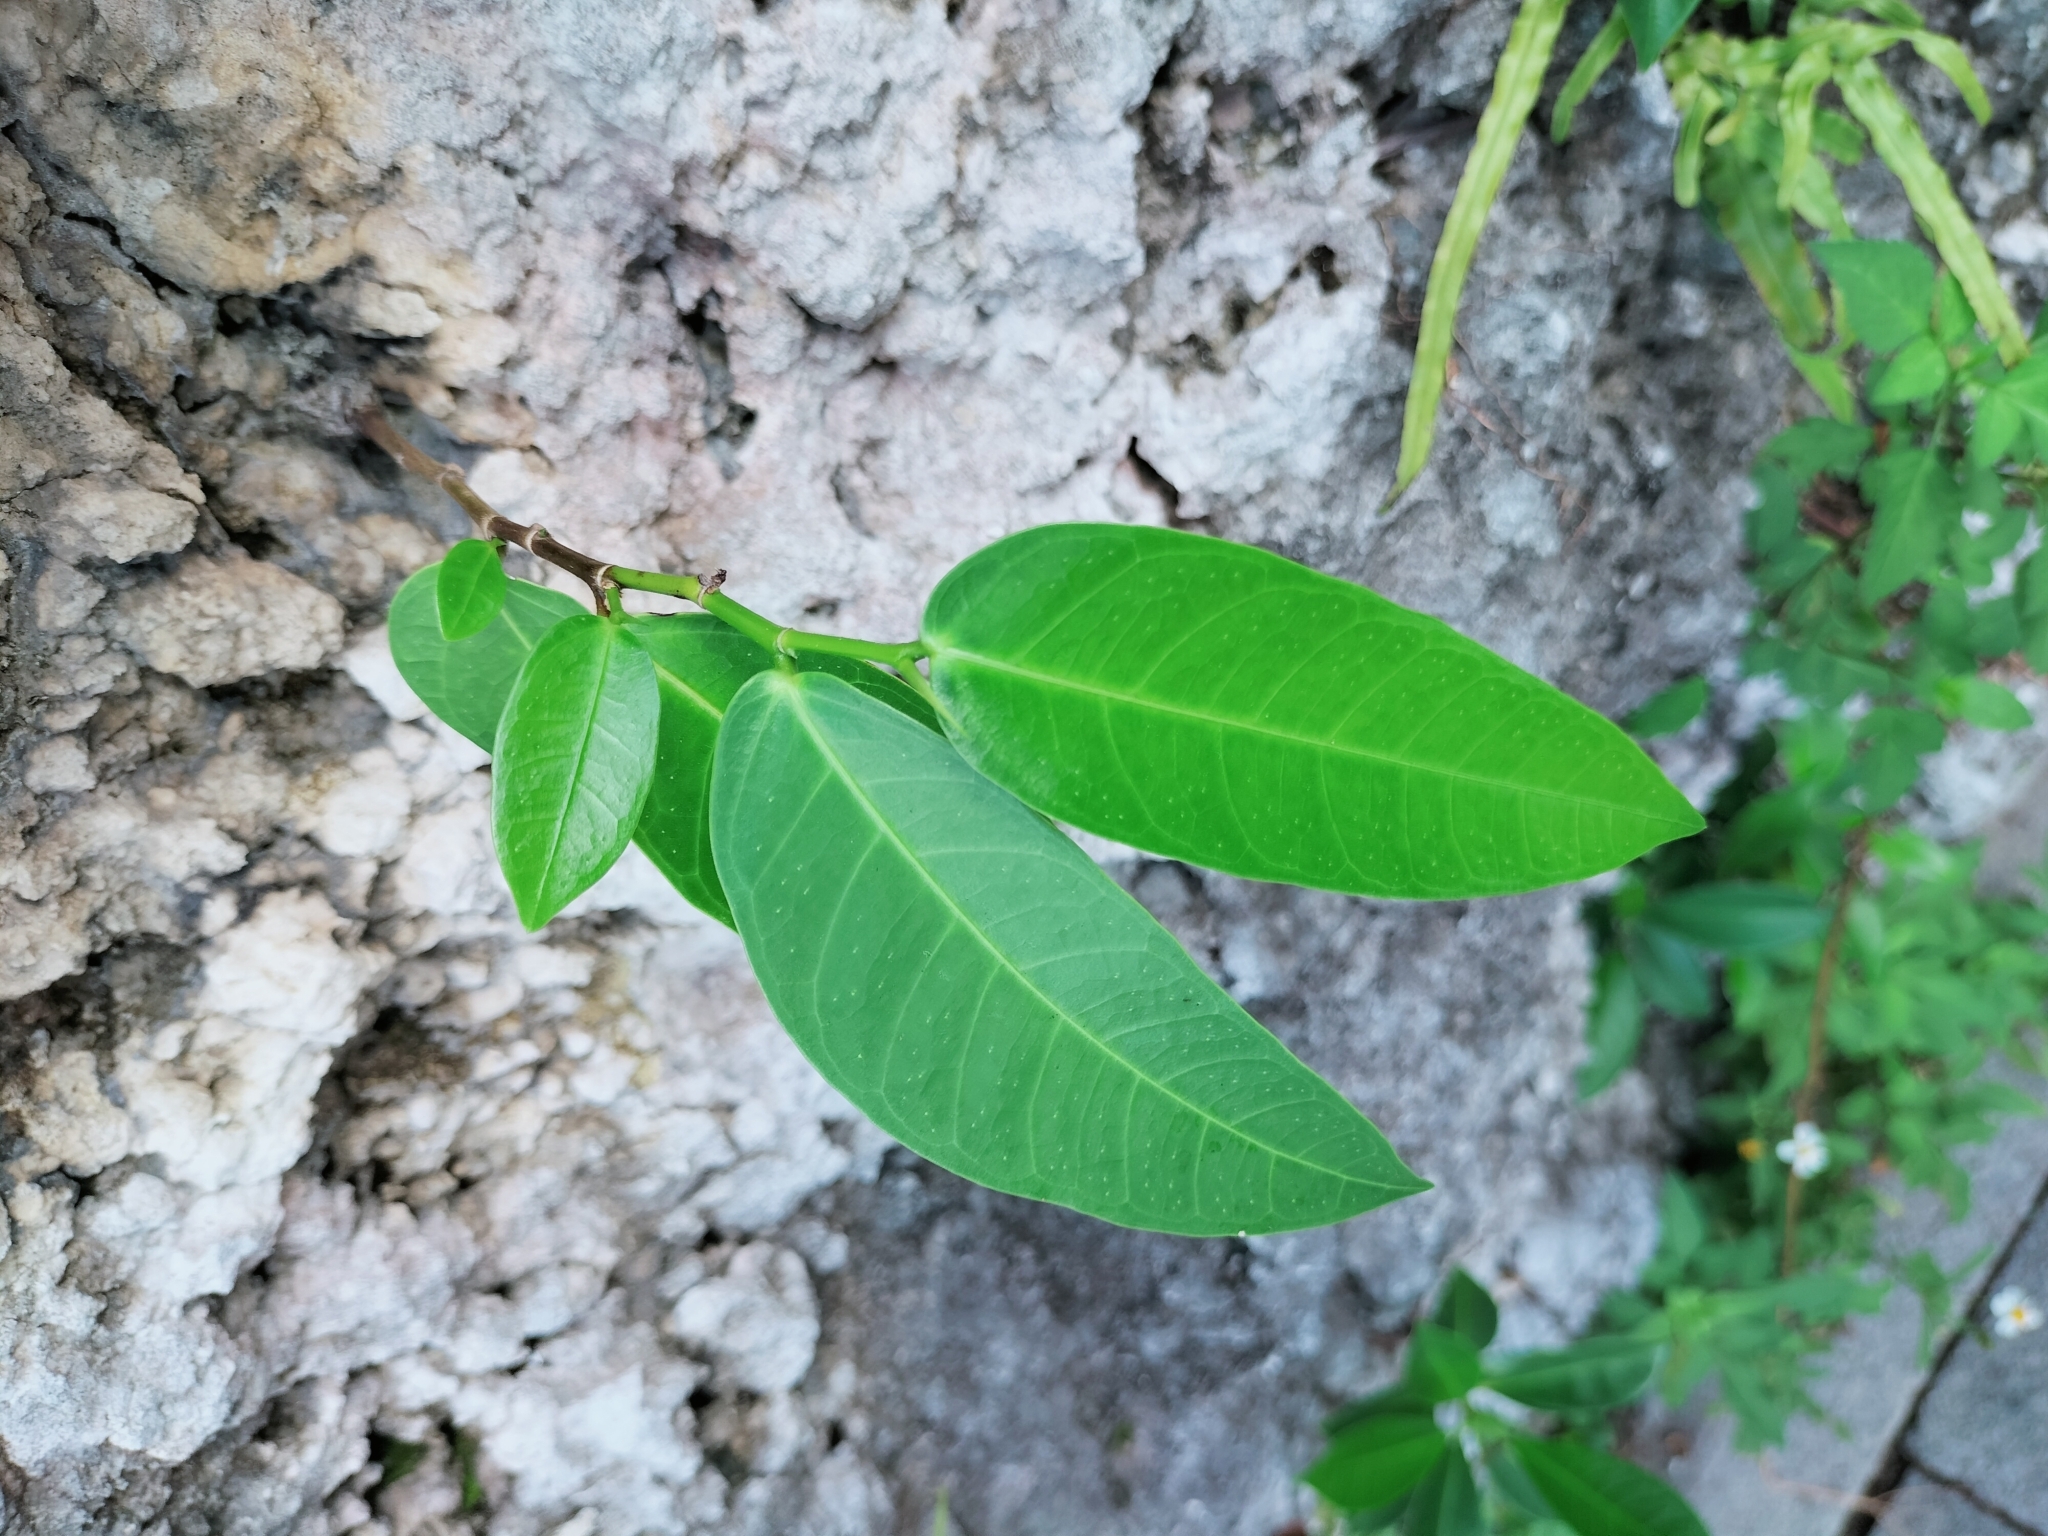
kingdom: Plantae
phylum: Tracheophyta
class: Magnoliopsida
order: Rosales
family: Moraceae
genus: Ficus
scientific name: Ficus virgata
